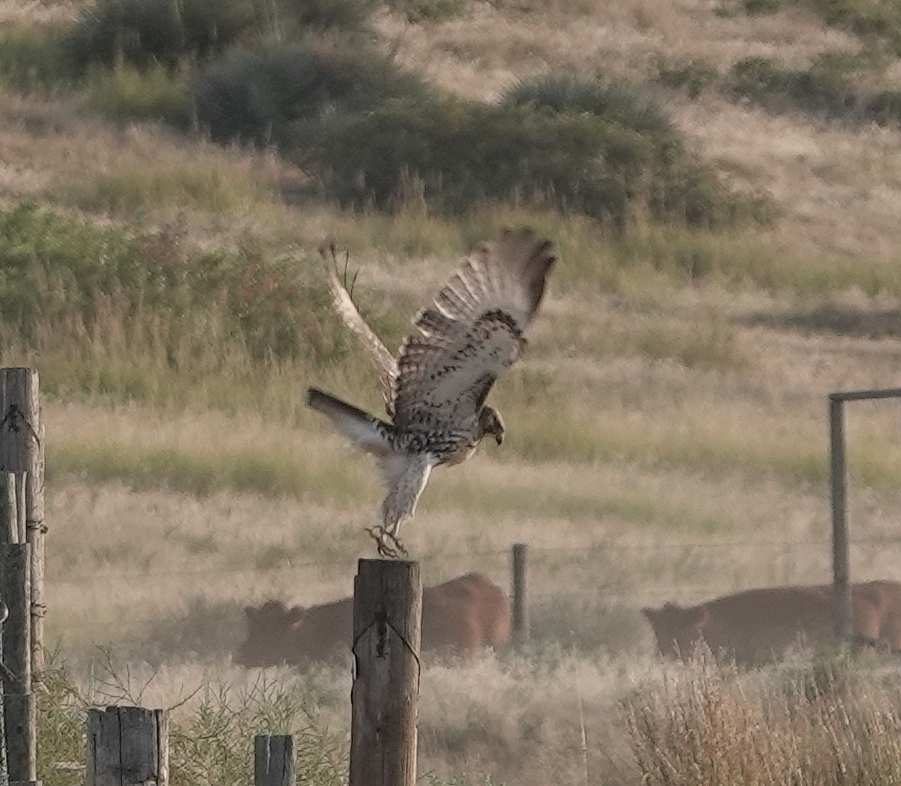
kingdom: Animalia
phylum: Chordata
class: Aves
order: Accipitriformes
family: Accipitridae
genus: Buteo
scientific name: Buteo jamaicensis
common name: Red-tailed hawk
